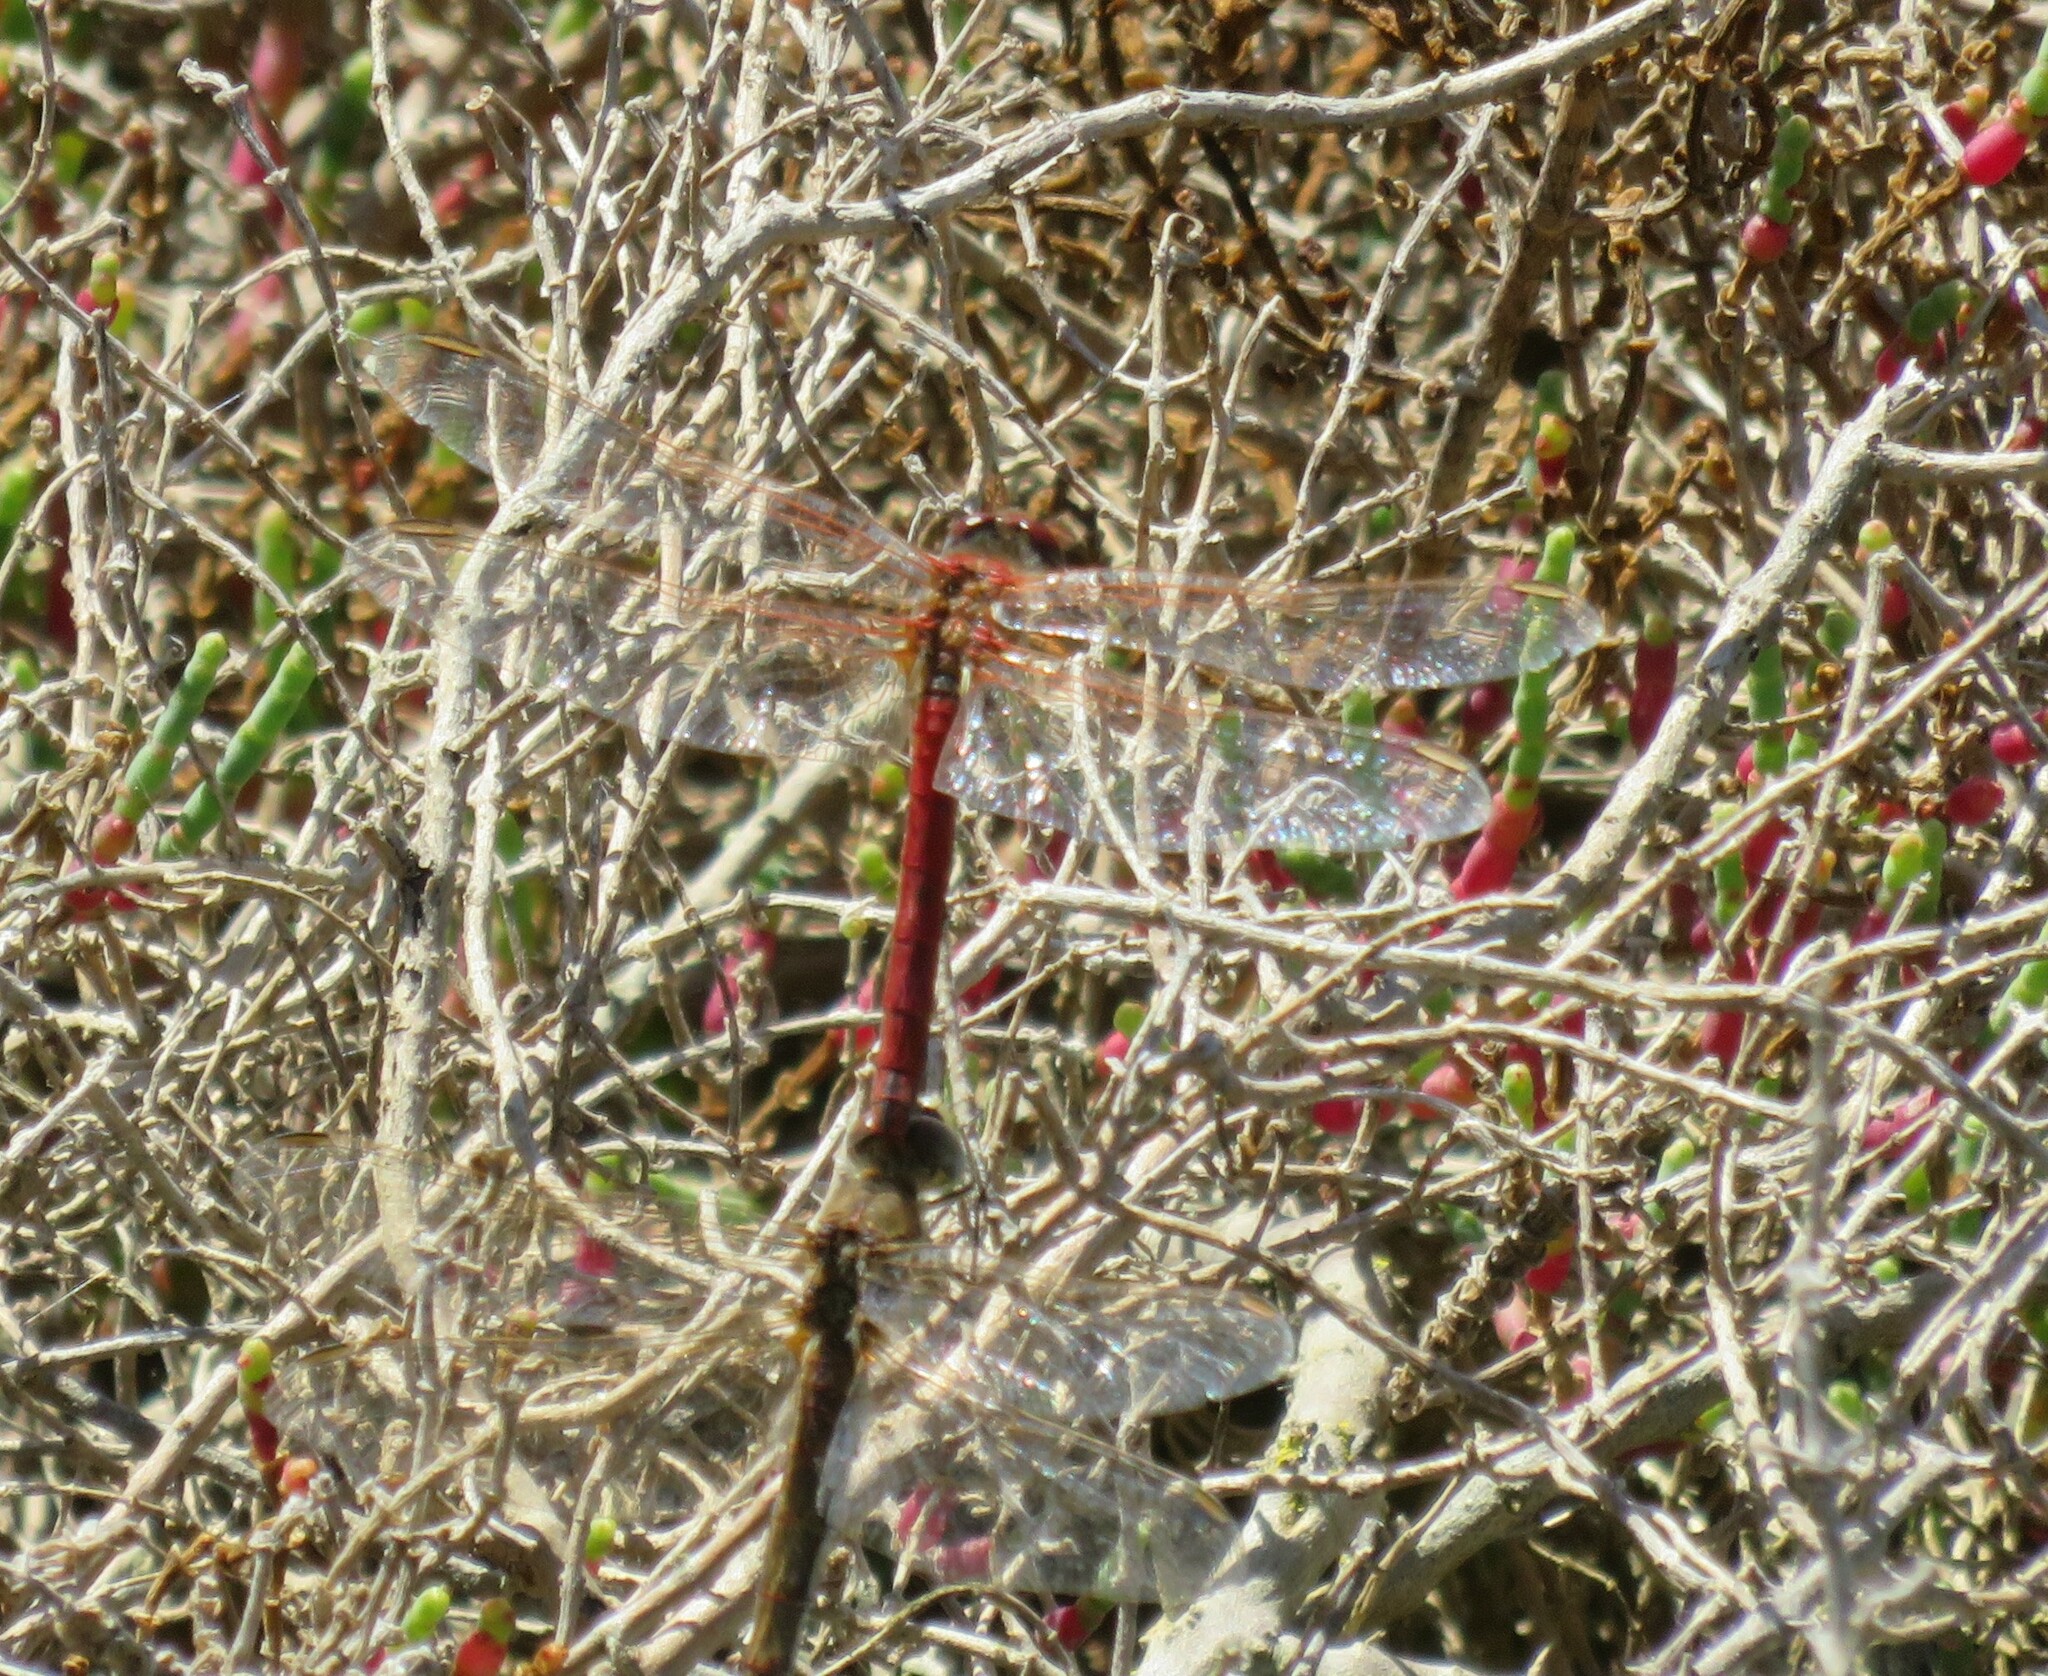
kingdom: Animalia
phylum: Arthropoda
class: Insecta
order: Odonata
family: Libellulidae
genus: Sympetrum
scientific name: Sympetrum fonscolombii
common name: Red-veined darter
